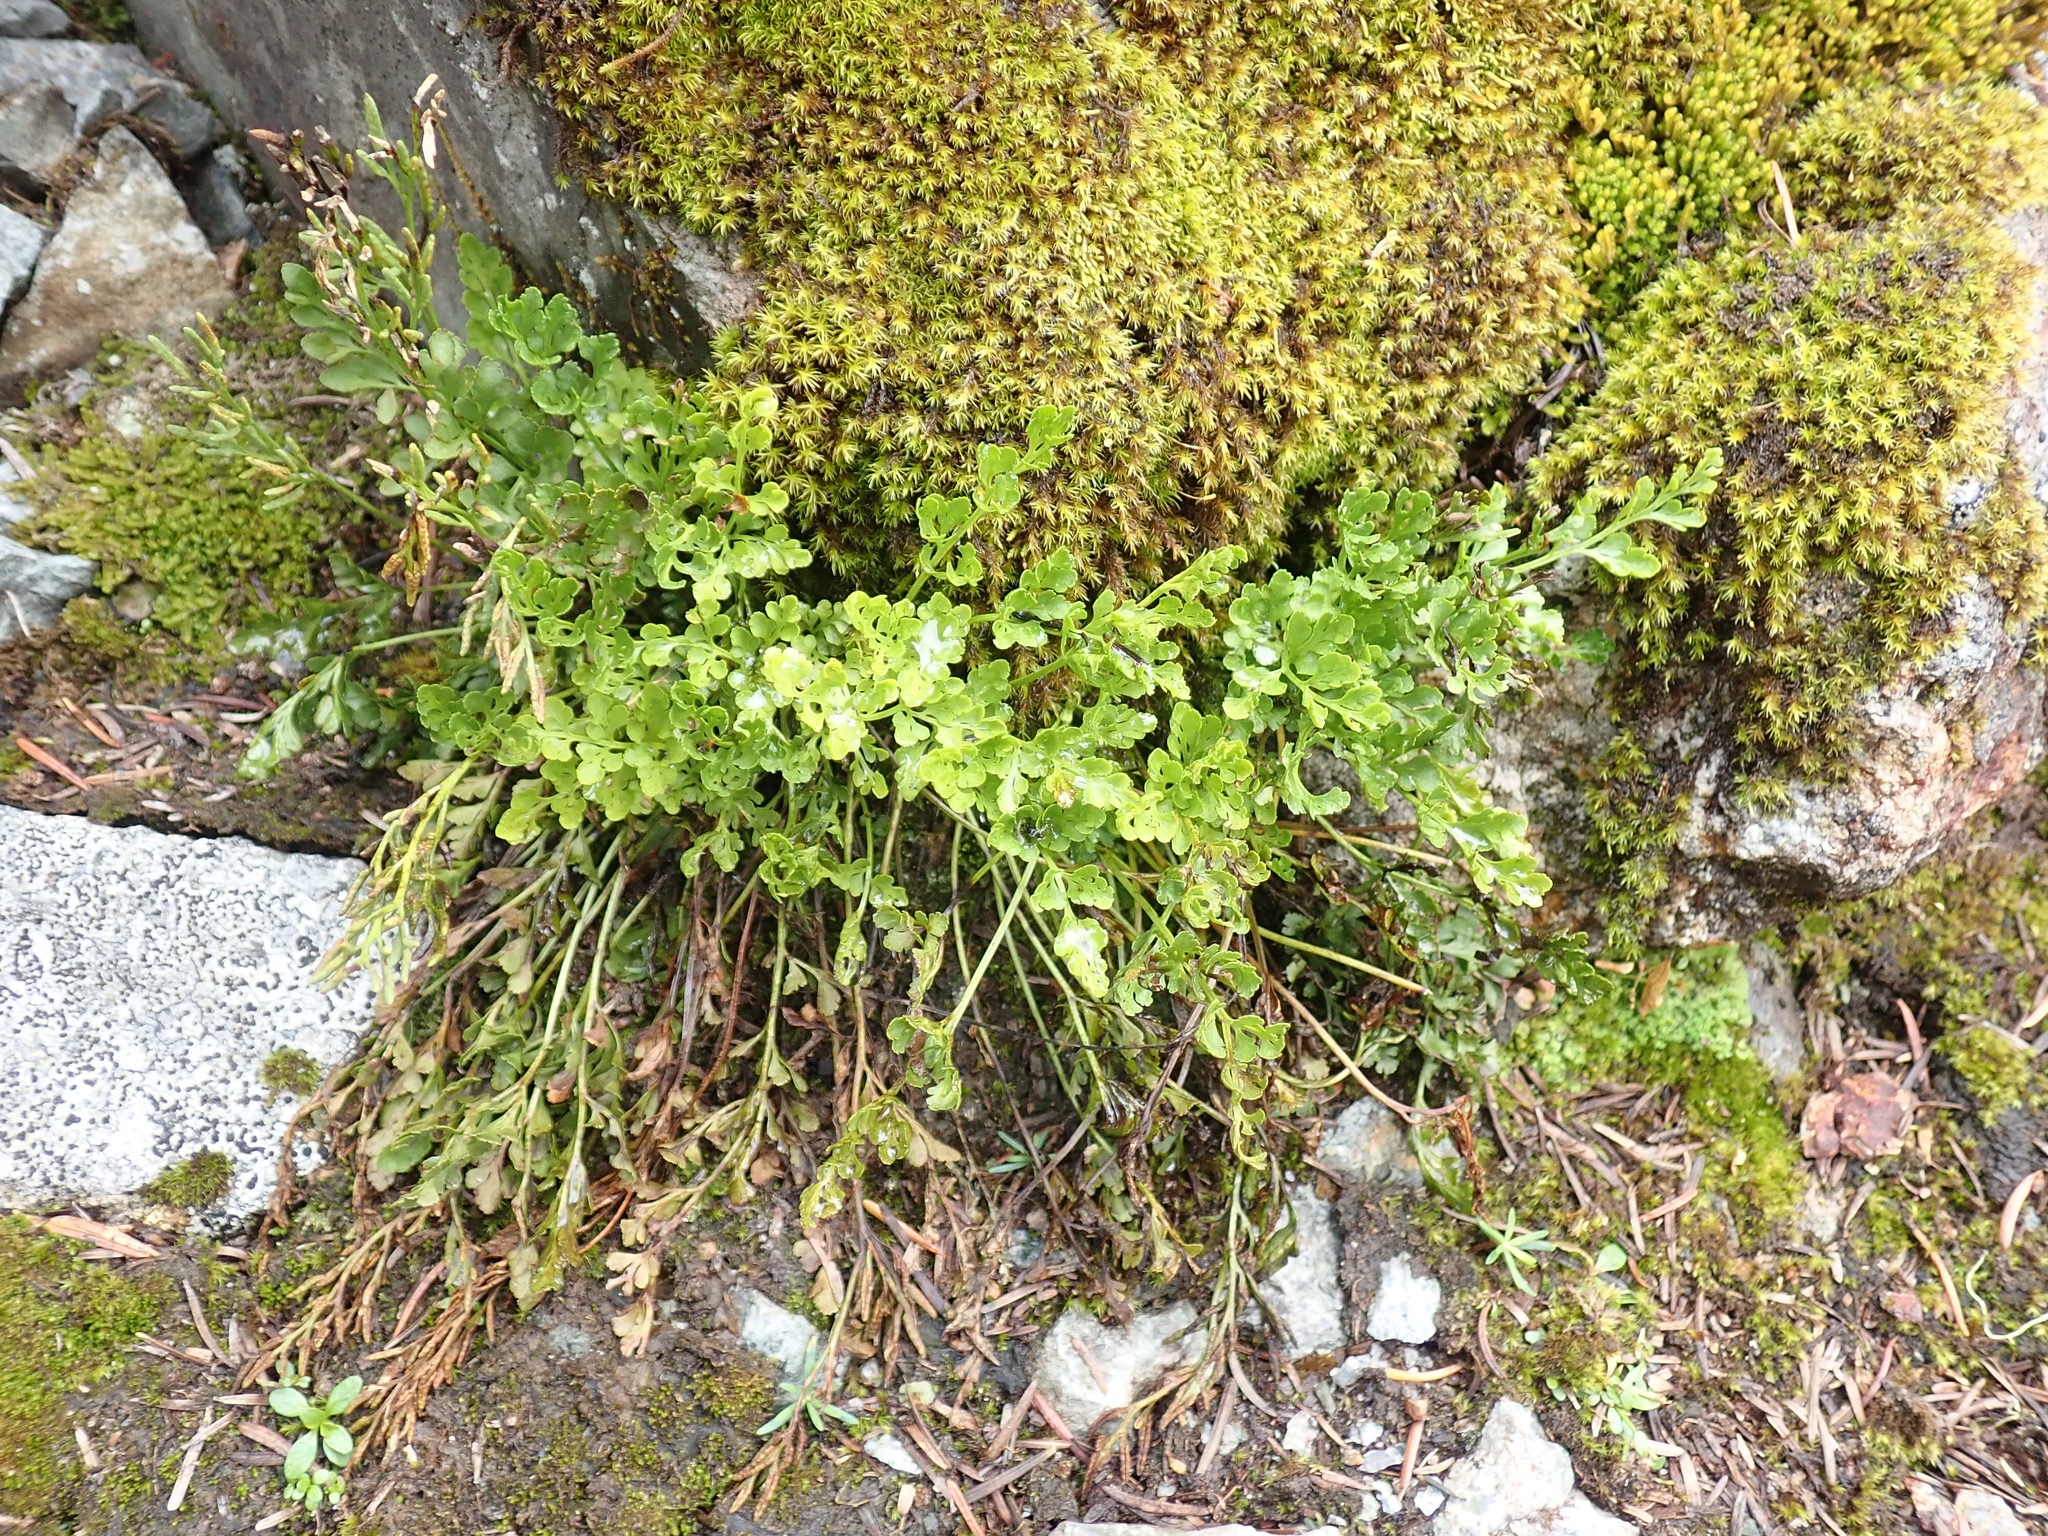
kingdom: Plantae
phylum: Tracheophyta
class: Polypodiopsida
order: Polypodiales
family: Pteridaceae
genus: Cryptogramma
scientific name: Cryptogramma acrostichoides
